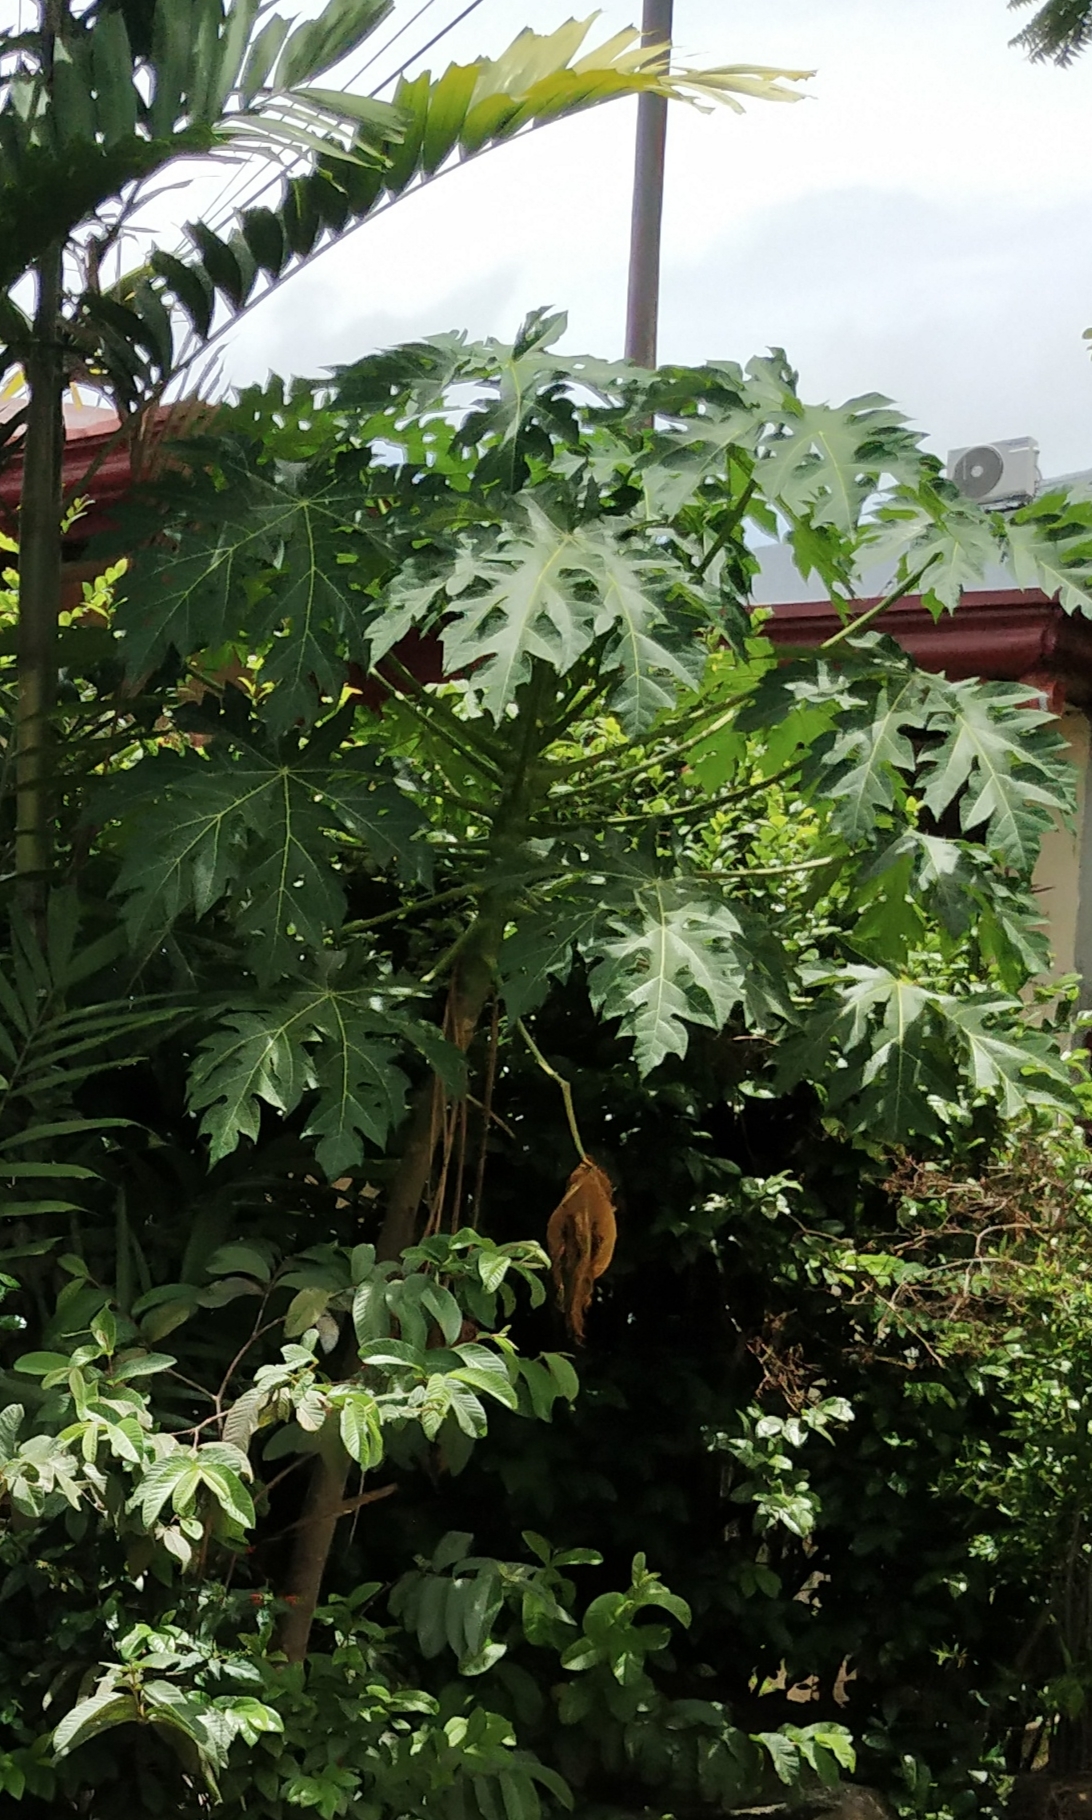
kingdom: Plantae
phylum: Tracheophyta
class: Magnoliopsida
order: Brassicales
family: Caricaceae
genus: Carica
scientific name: Carica papaya
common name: Papaya
